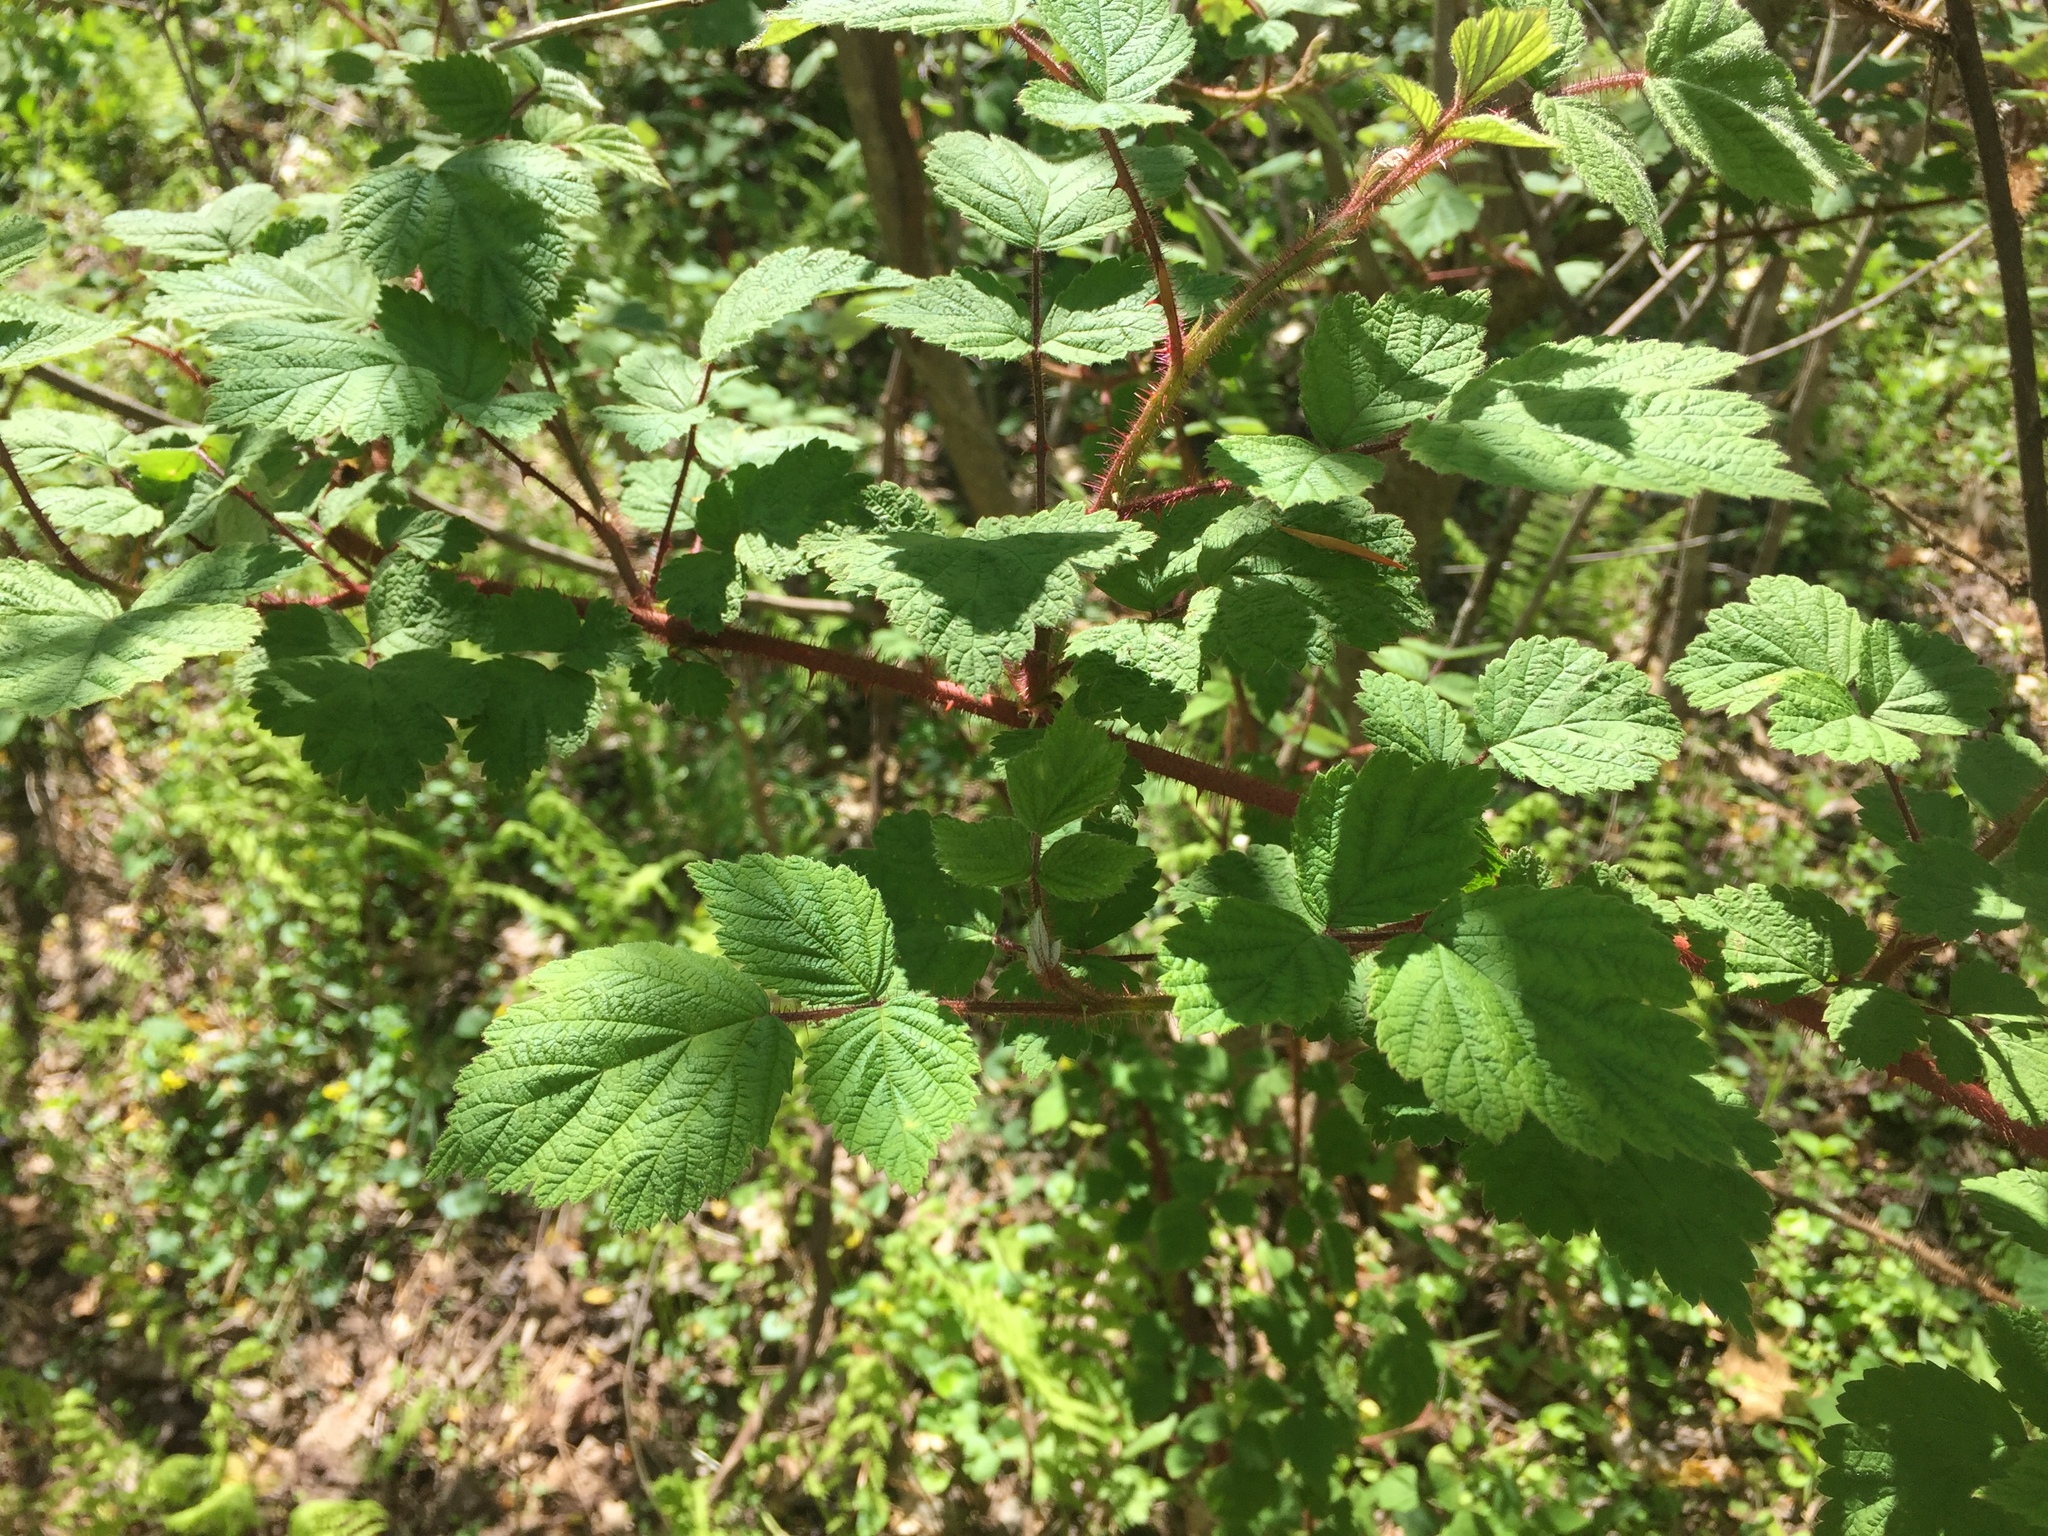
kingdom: Plantae
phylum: Tracheophyta
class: Magnoliopsida
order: Rosales
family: Rosaceae
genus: Rubus
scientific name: Rubus phoenicolasius
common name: Japanese wineberry
